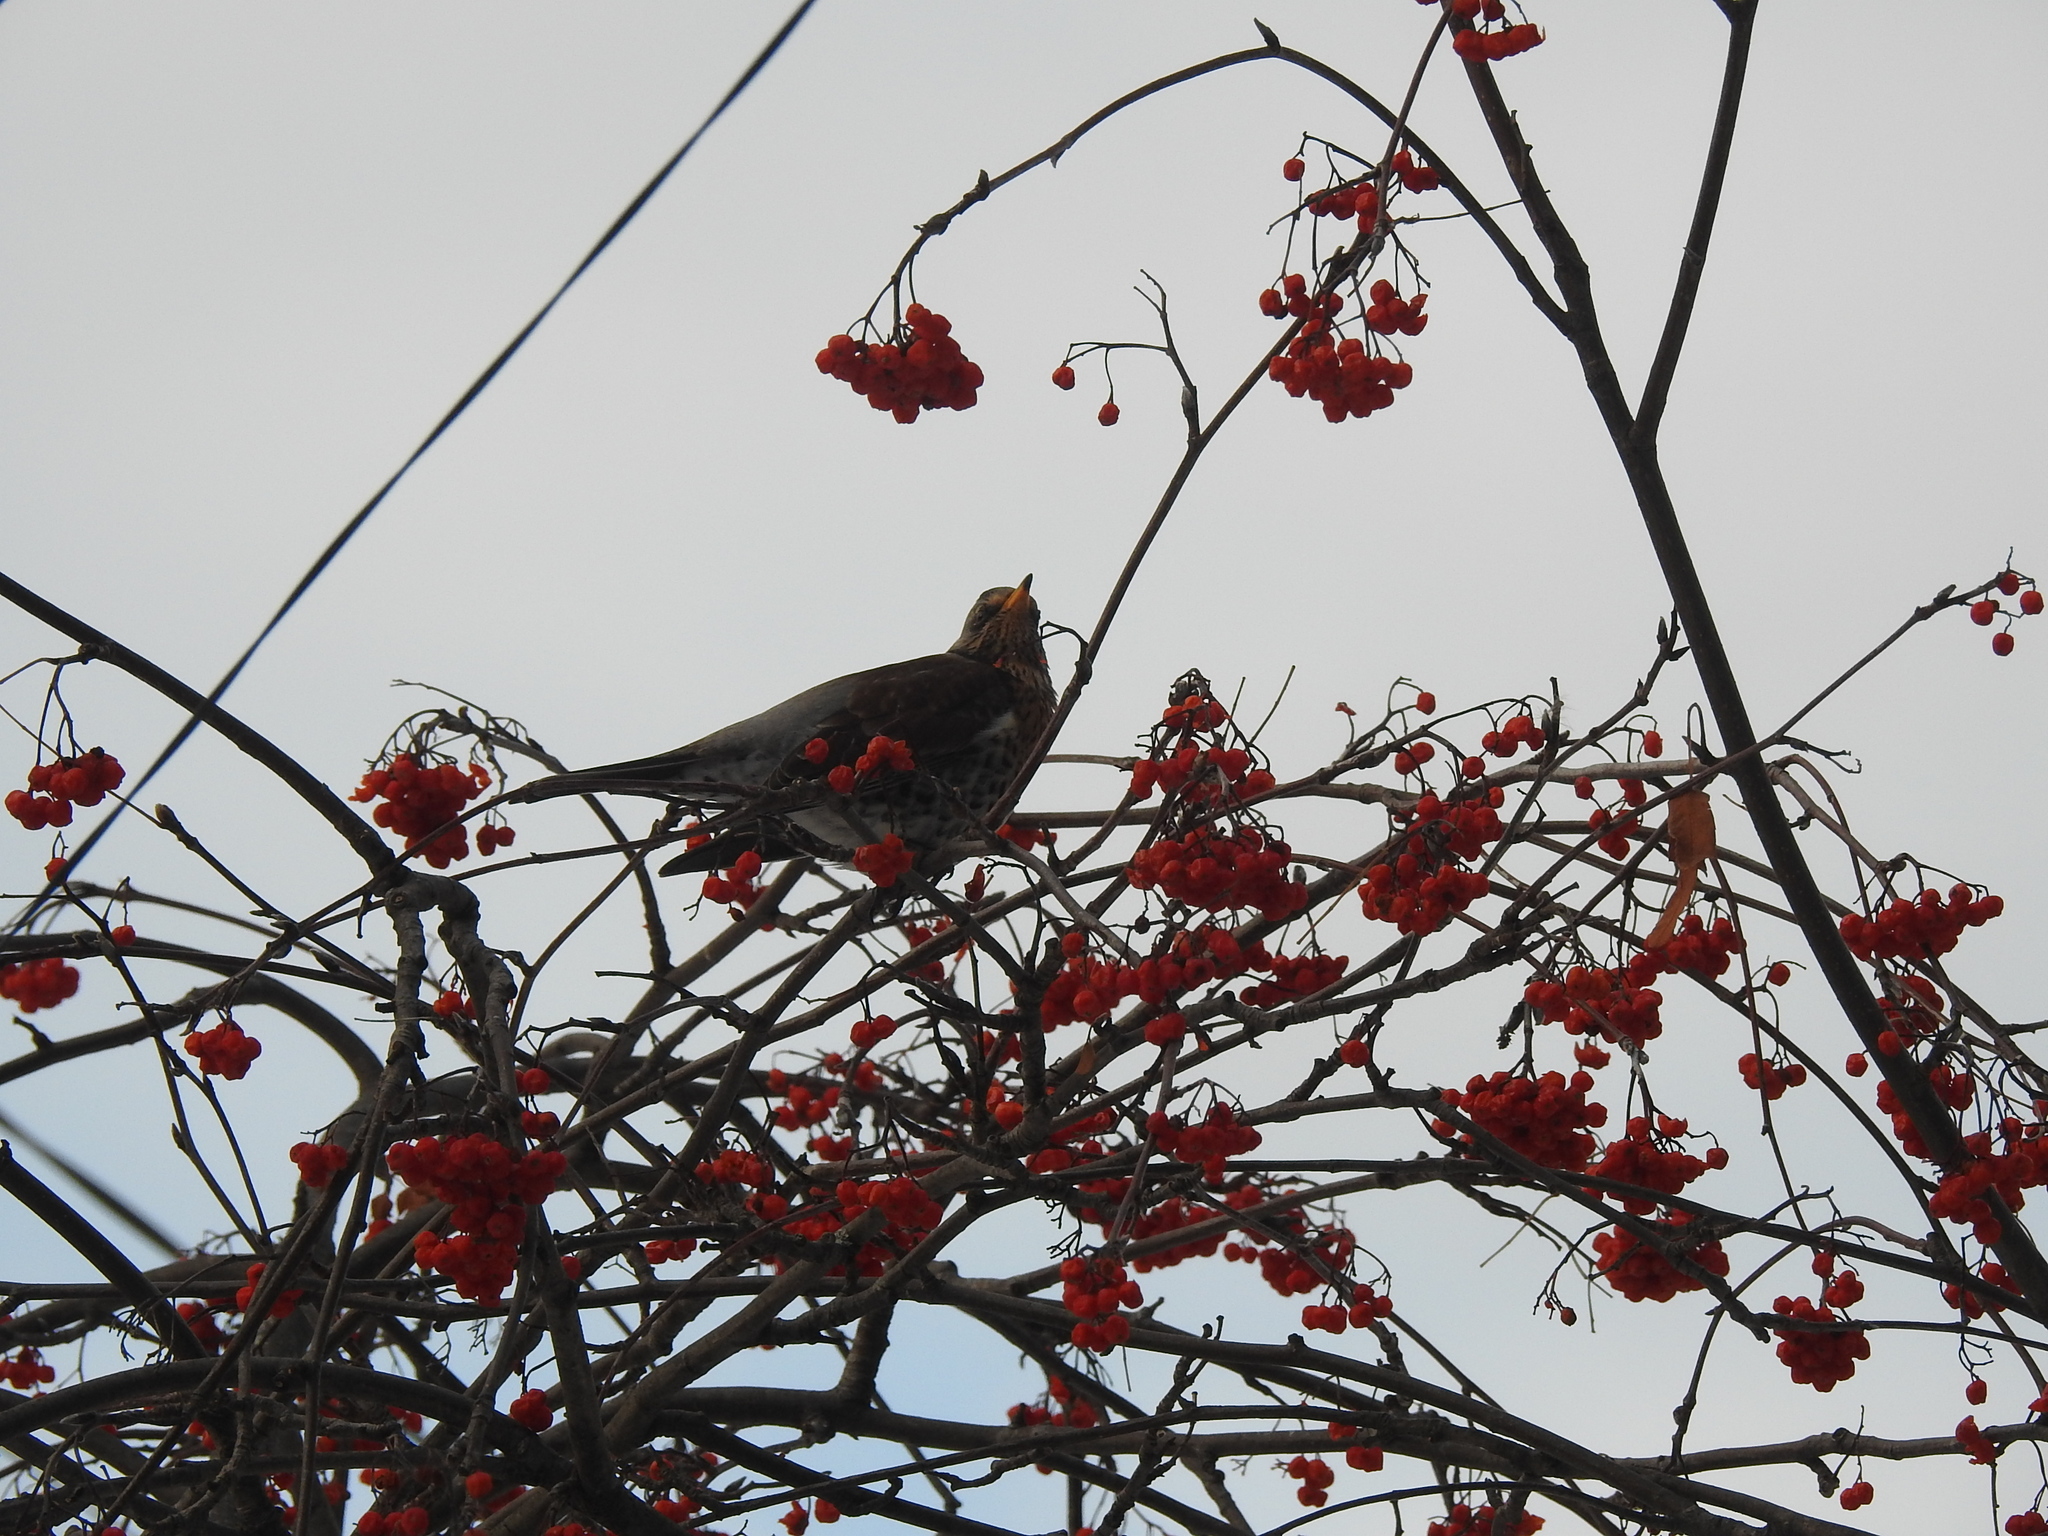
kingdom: Animalia
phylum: Chordata
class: Aves
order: Passeriformes
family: Turdidae
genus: Turdus
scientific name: Turdus pilaris
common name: Fieldfare
